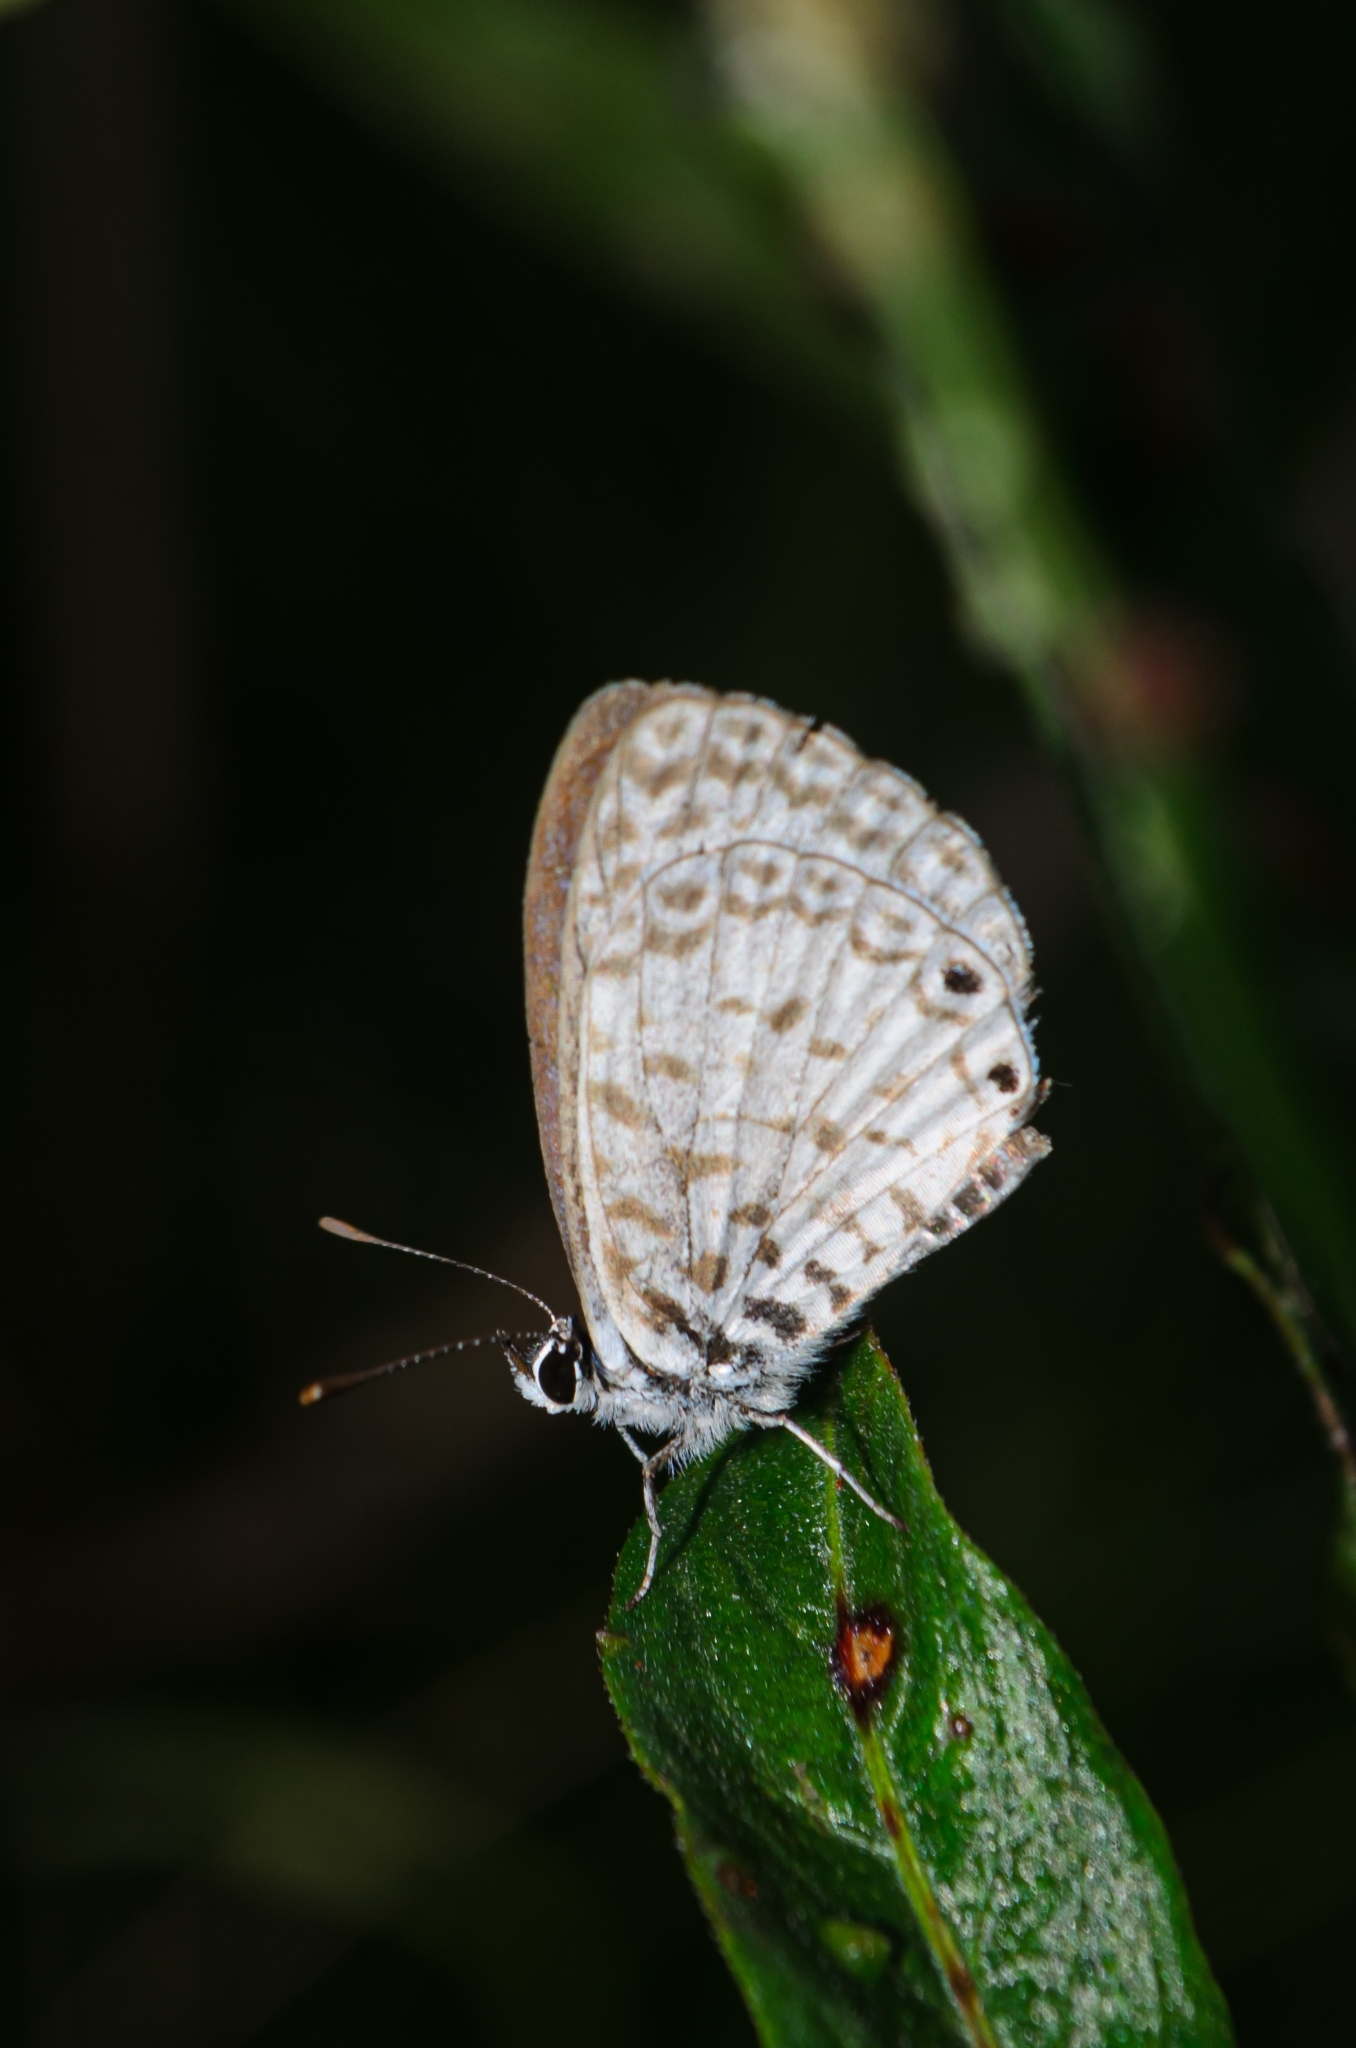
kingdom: Animalia
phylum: Arthropoda
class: Insecta
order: Lepidoptera
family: Lycaenidae
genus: Leptotes
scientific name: Leptotes cassius
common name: Cassius blue
